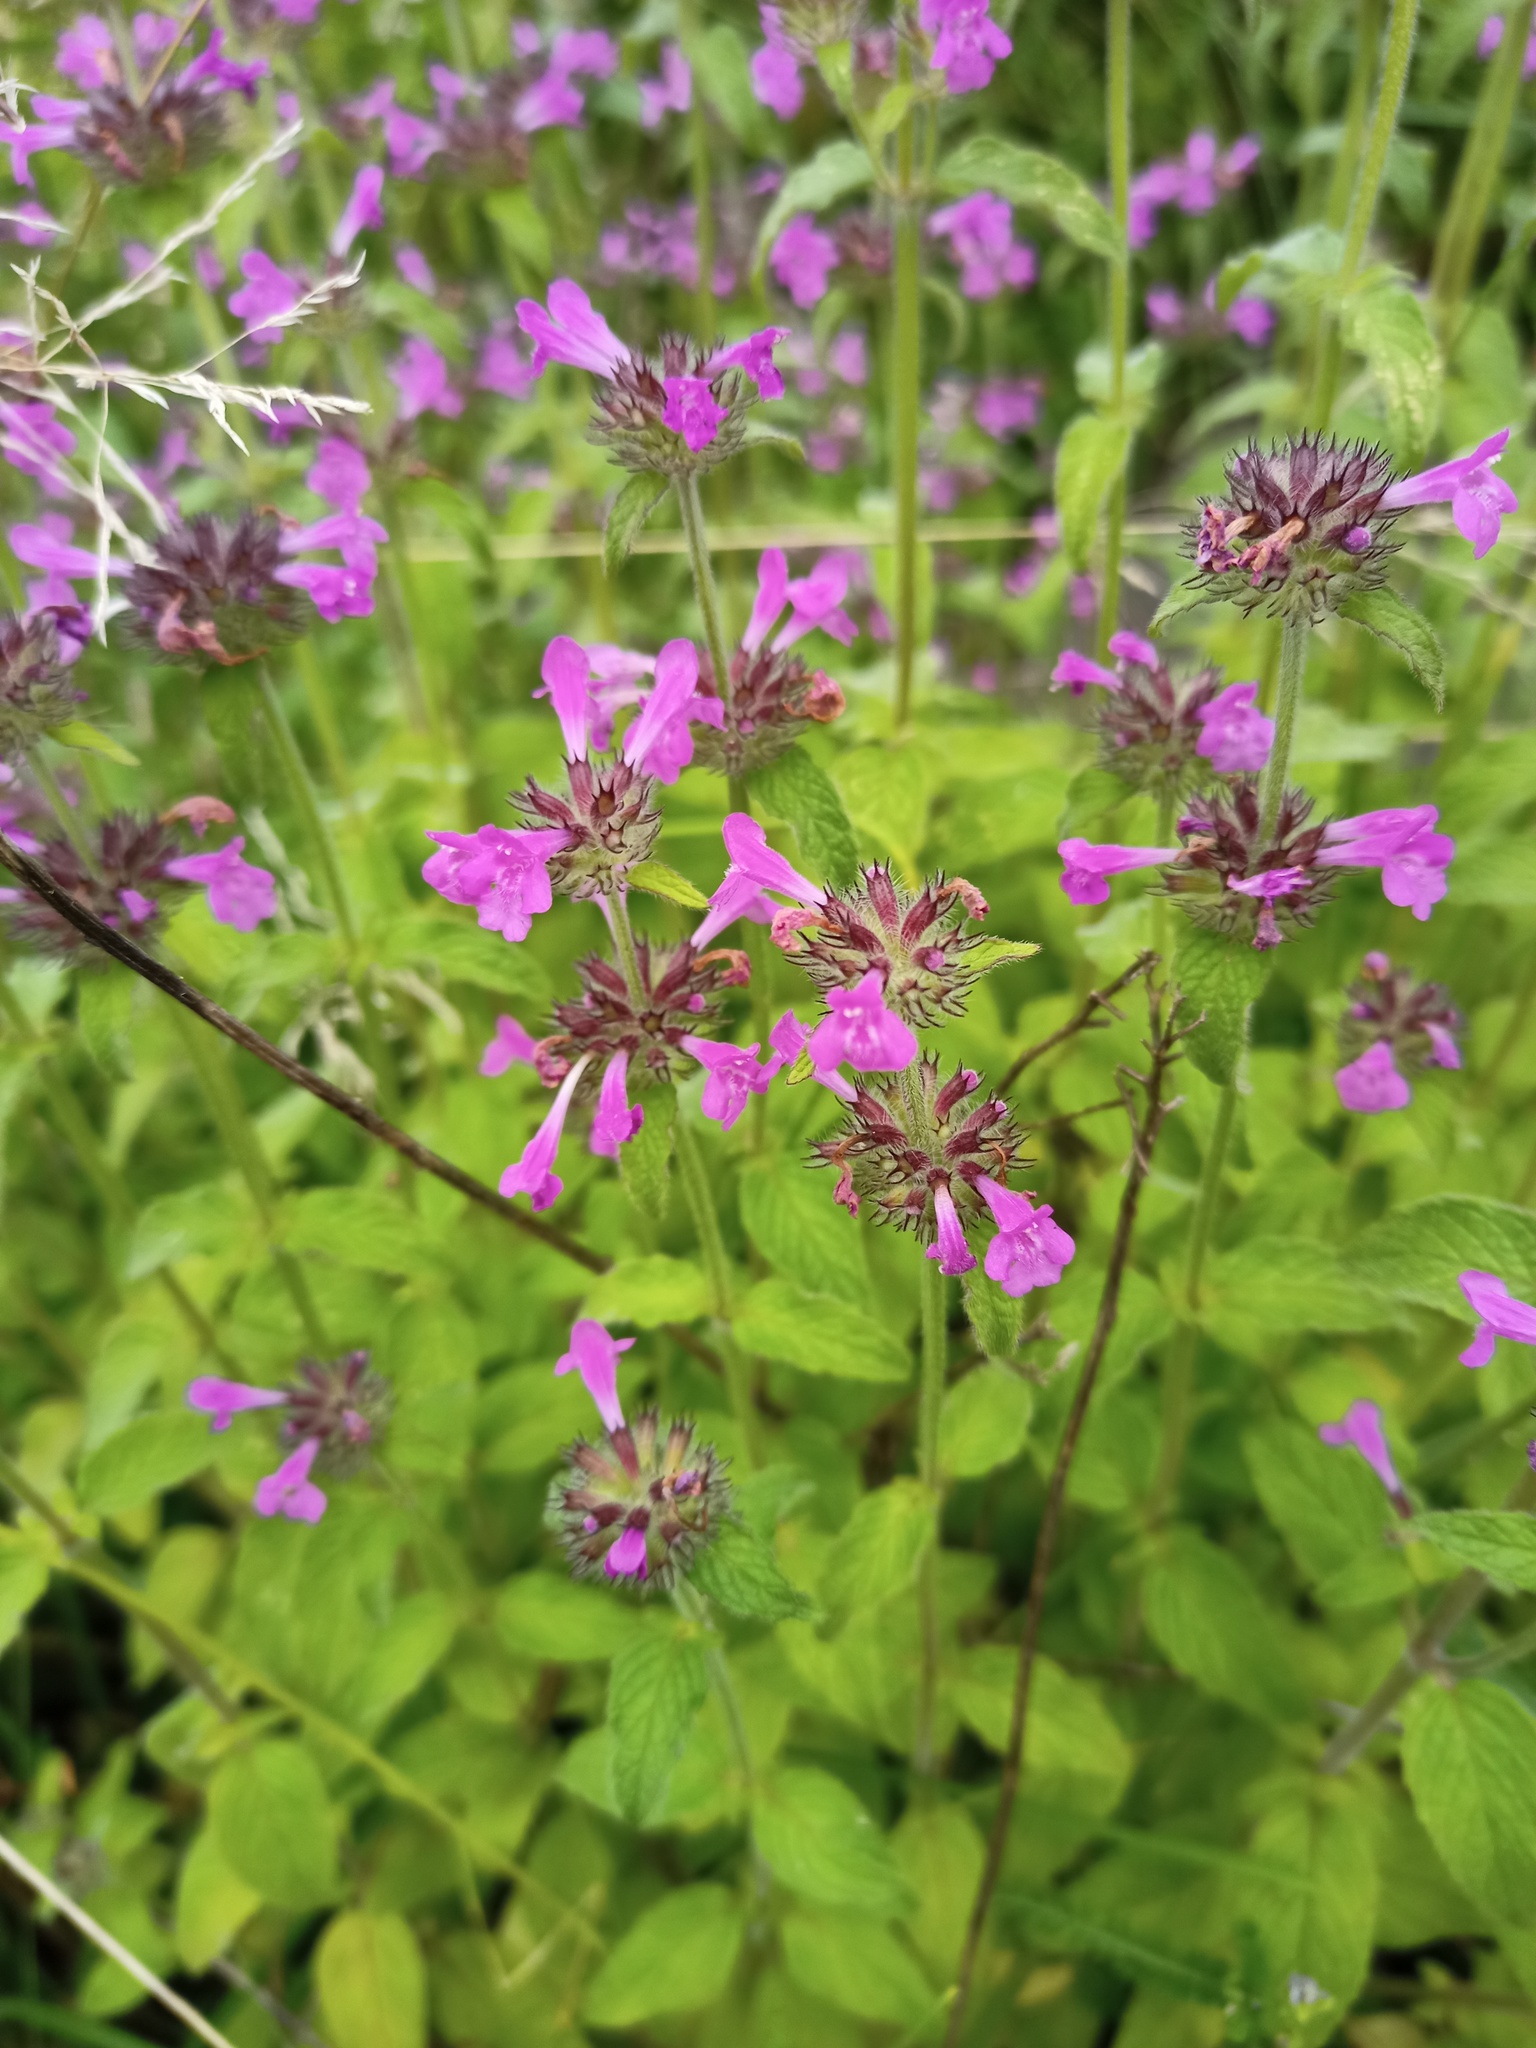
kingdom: Plantae
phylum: Tracheophyta
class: Magnoliopsida
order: Lamiales
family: Lamiaceae
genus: Clinopodium
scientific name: Clinopodium vulgare
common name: Wild basil
